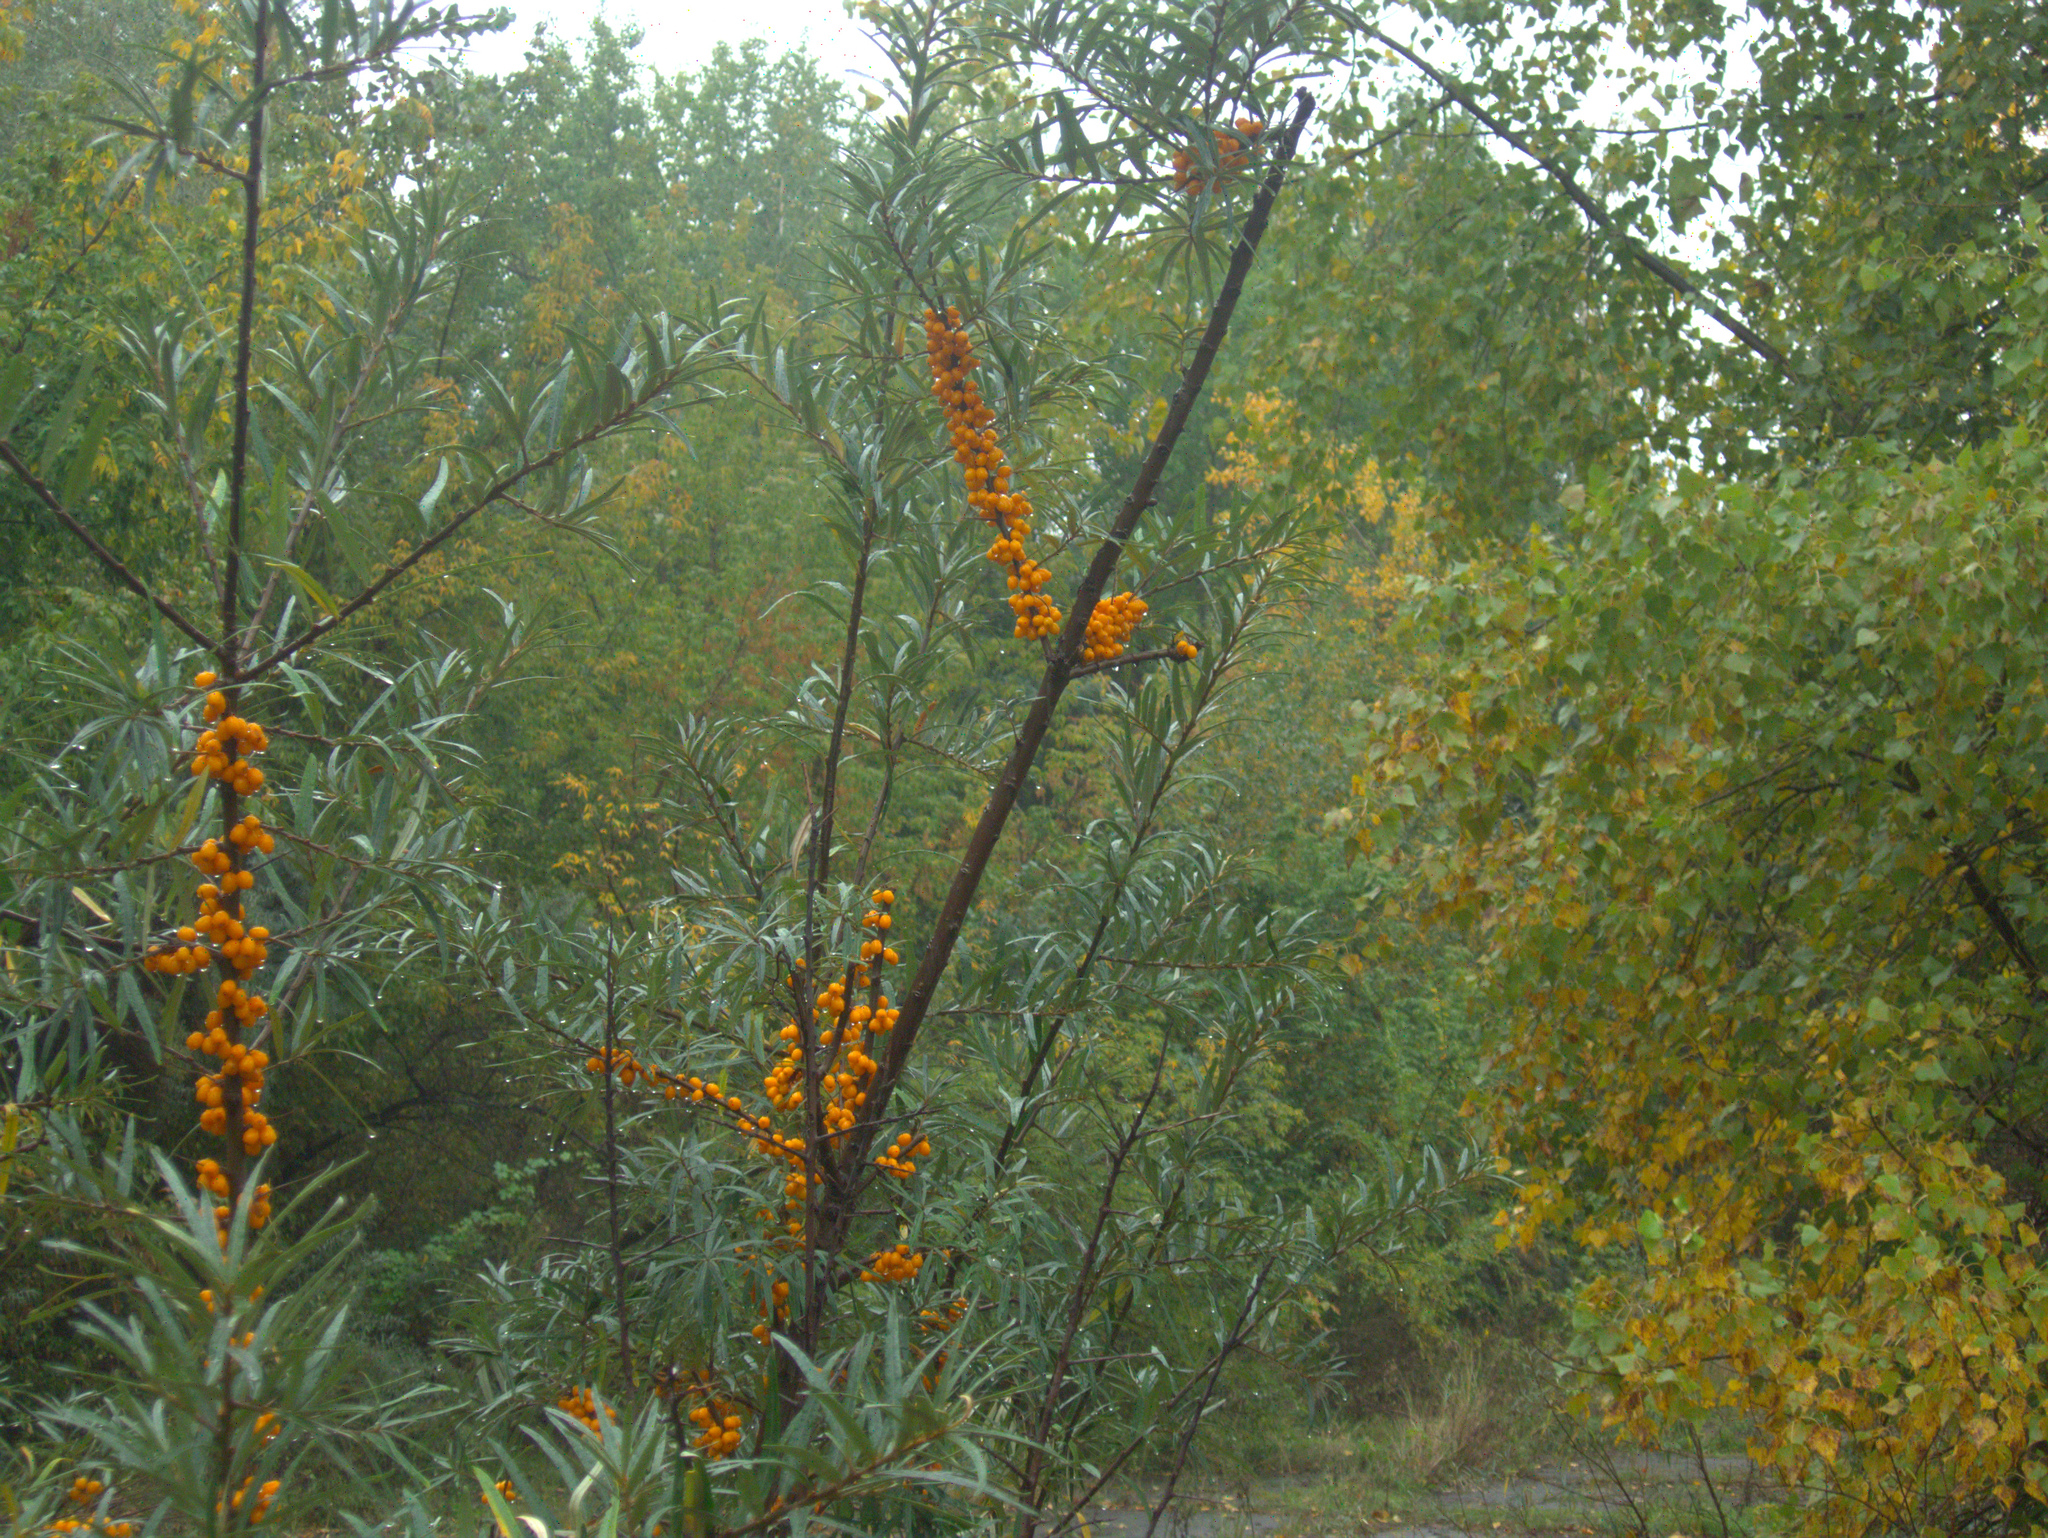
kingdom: Plantae
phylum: Tracheophyta
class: Magnoliopsida
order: Rosales
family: Elaeagnaceae
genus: Hippophae
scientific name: Hippophae rhamnoides
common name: Sea-buckthorn
